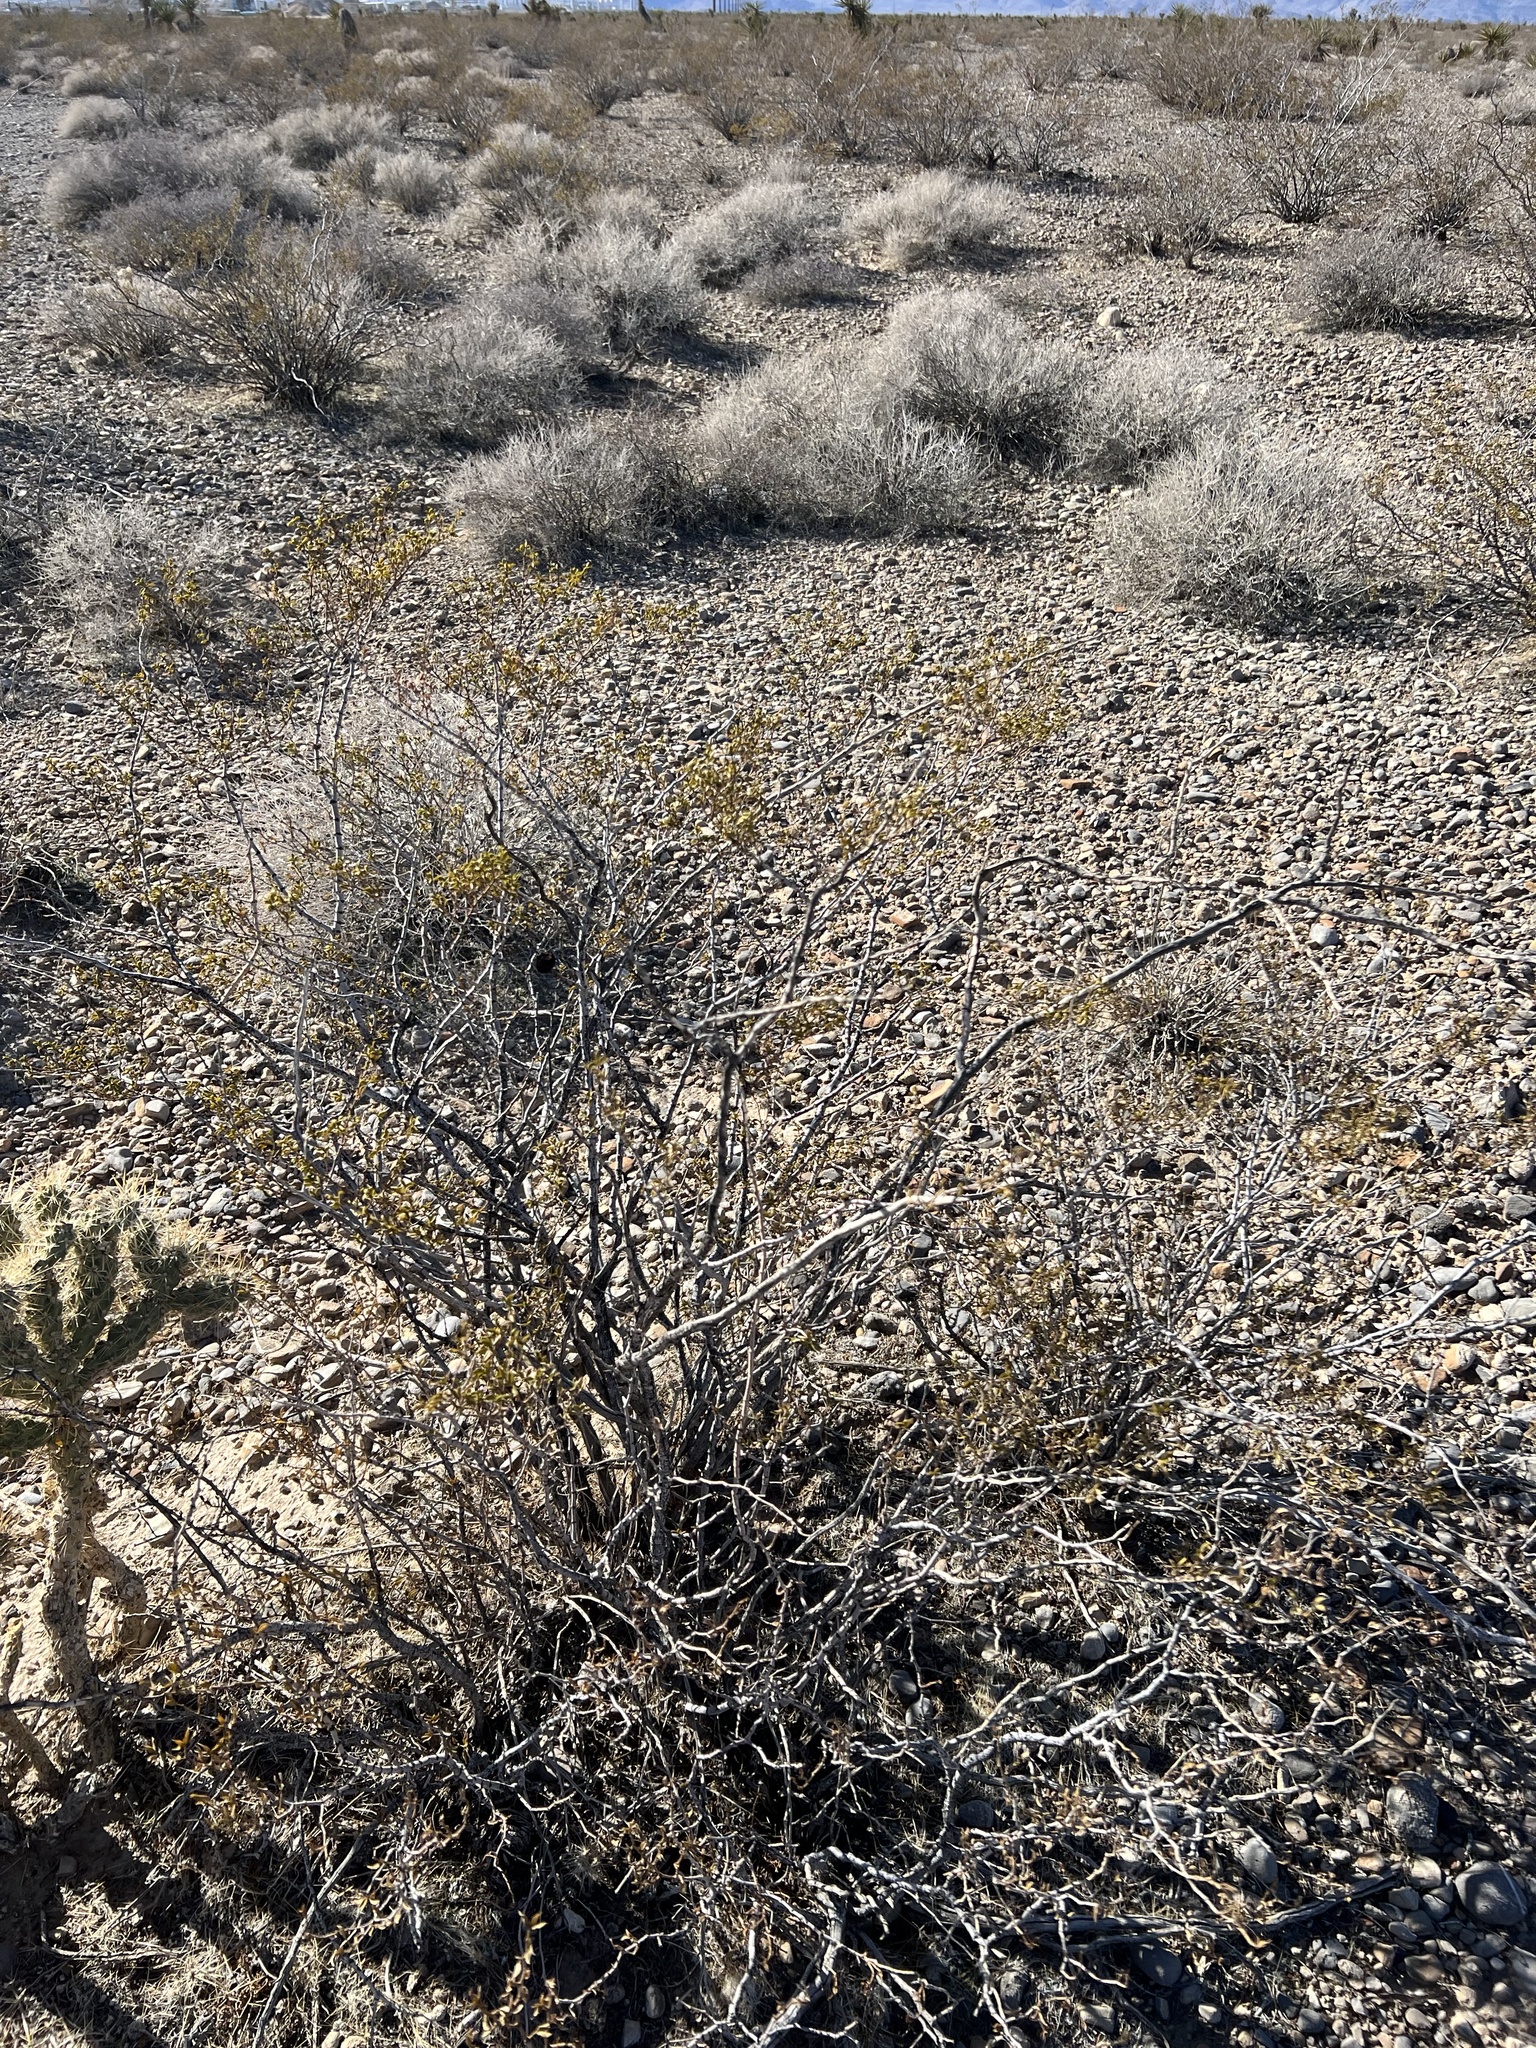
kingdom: Plantae
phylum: Tracheophyta
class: Magnoliopsida
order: Zygophyllales
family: Zygophyllaceae
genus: Larrea
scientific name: Larrea tridentata
